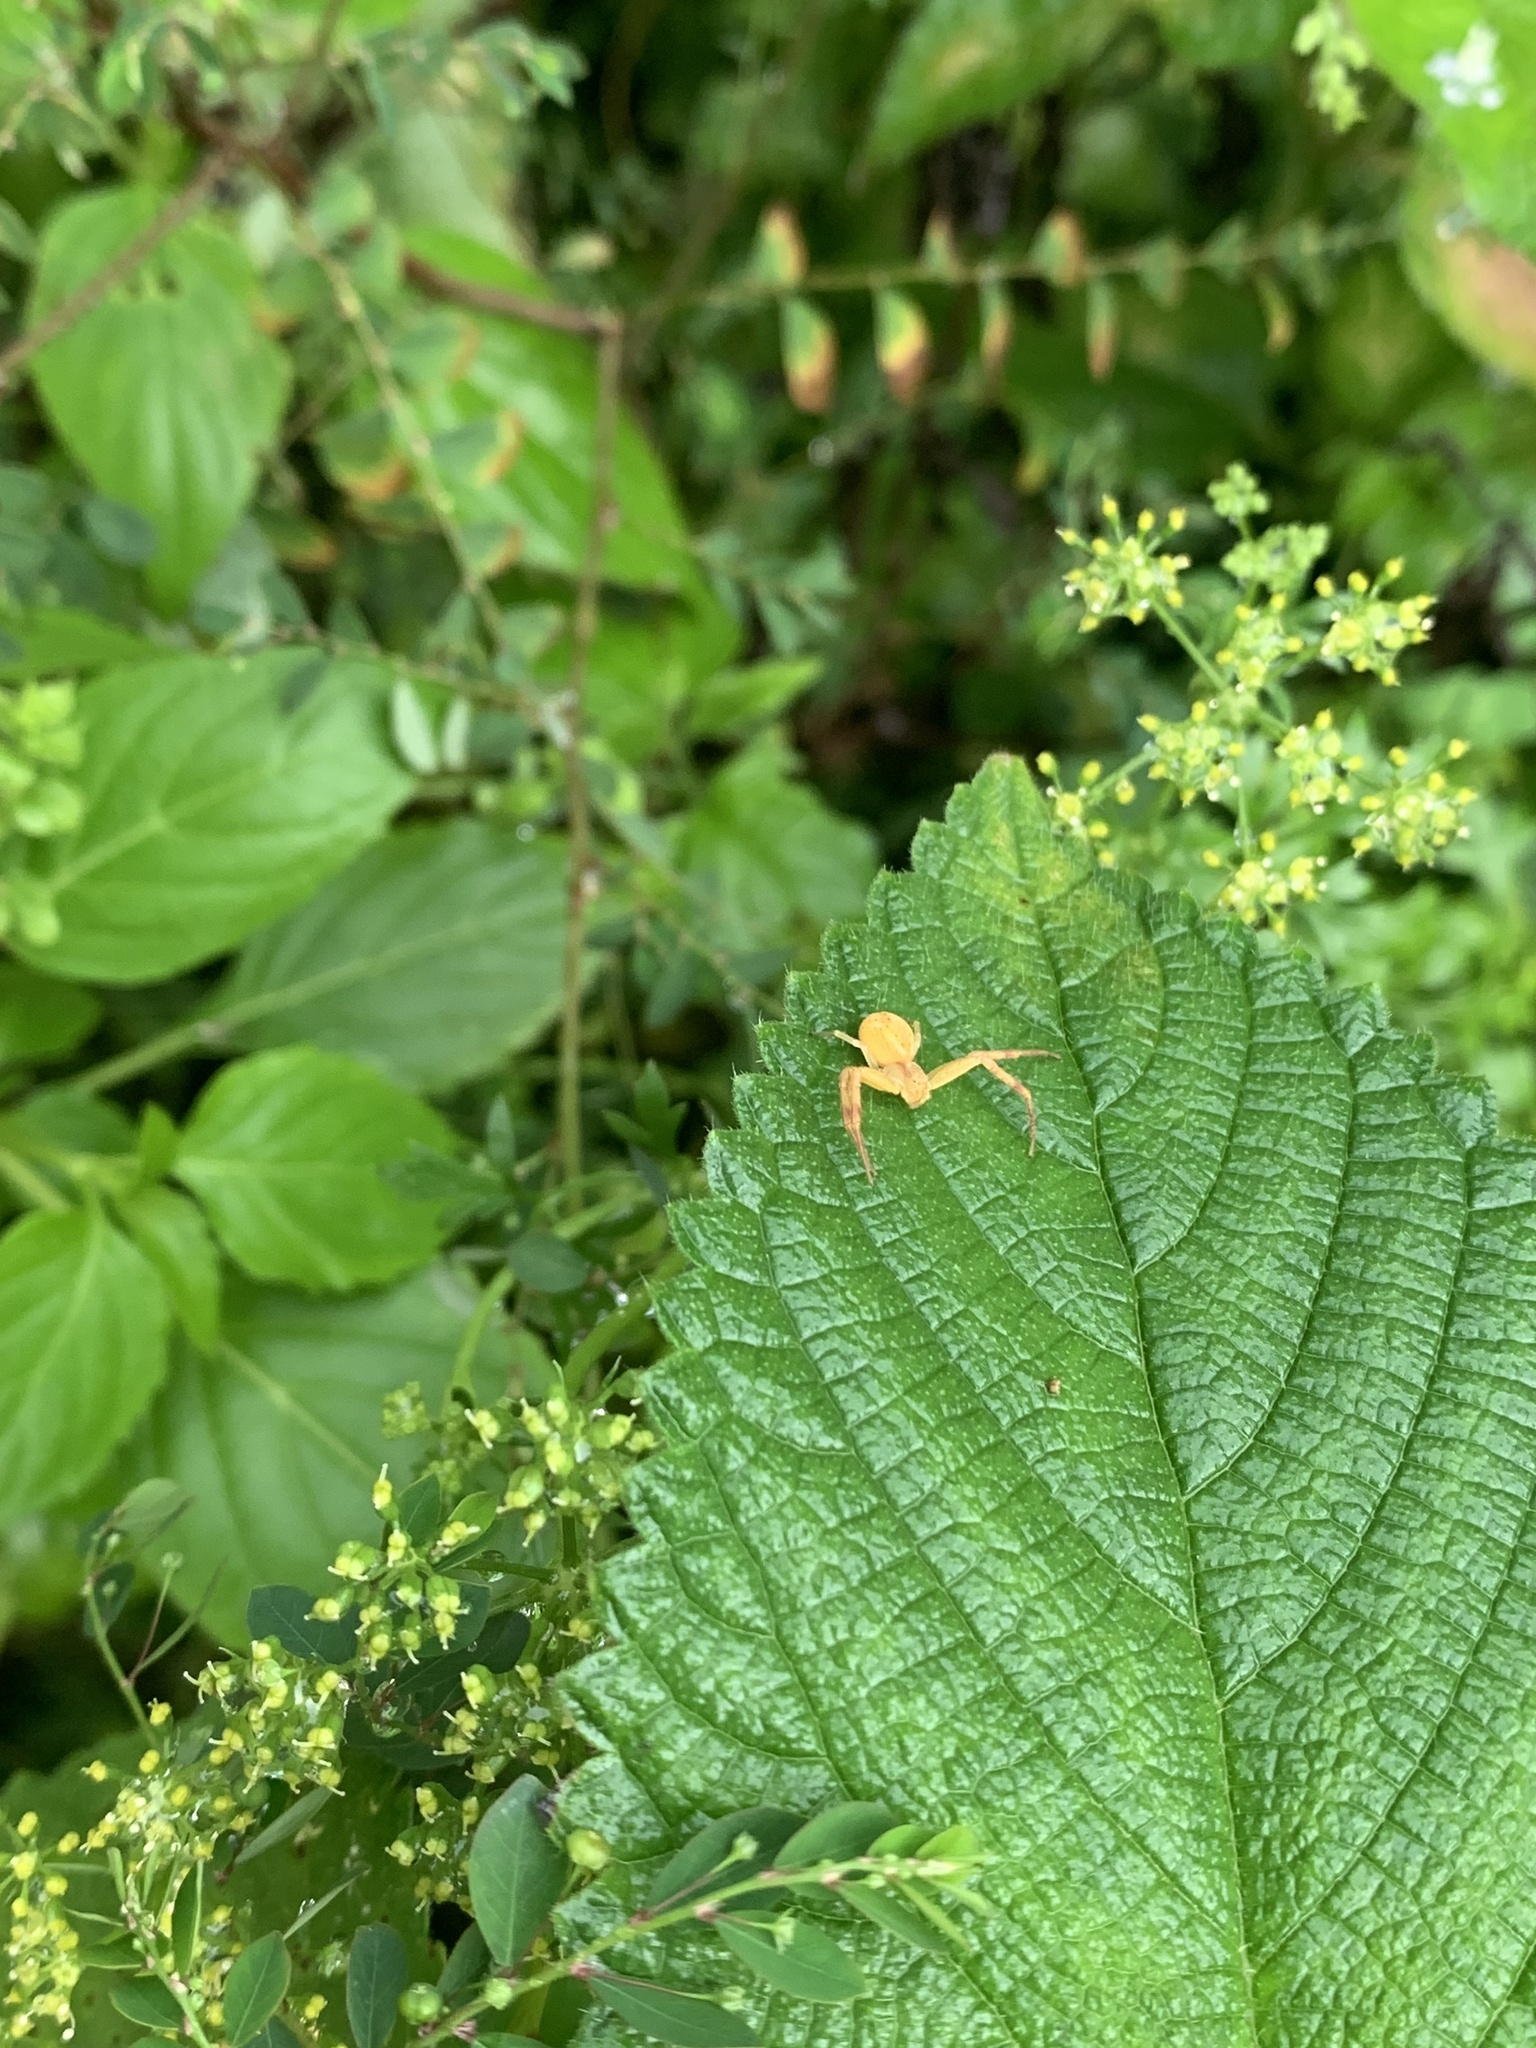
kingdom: Animalia
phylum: Arthropoda
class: Arachnida
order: Araneae
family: Thomisidae
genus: Misumenops
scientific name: Misumenops maculissparsus
